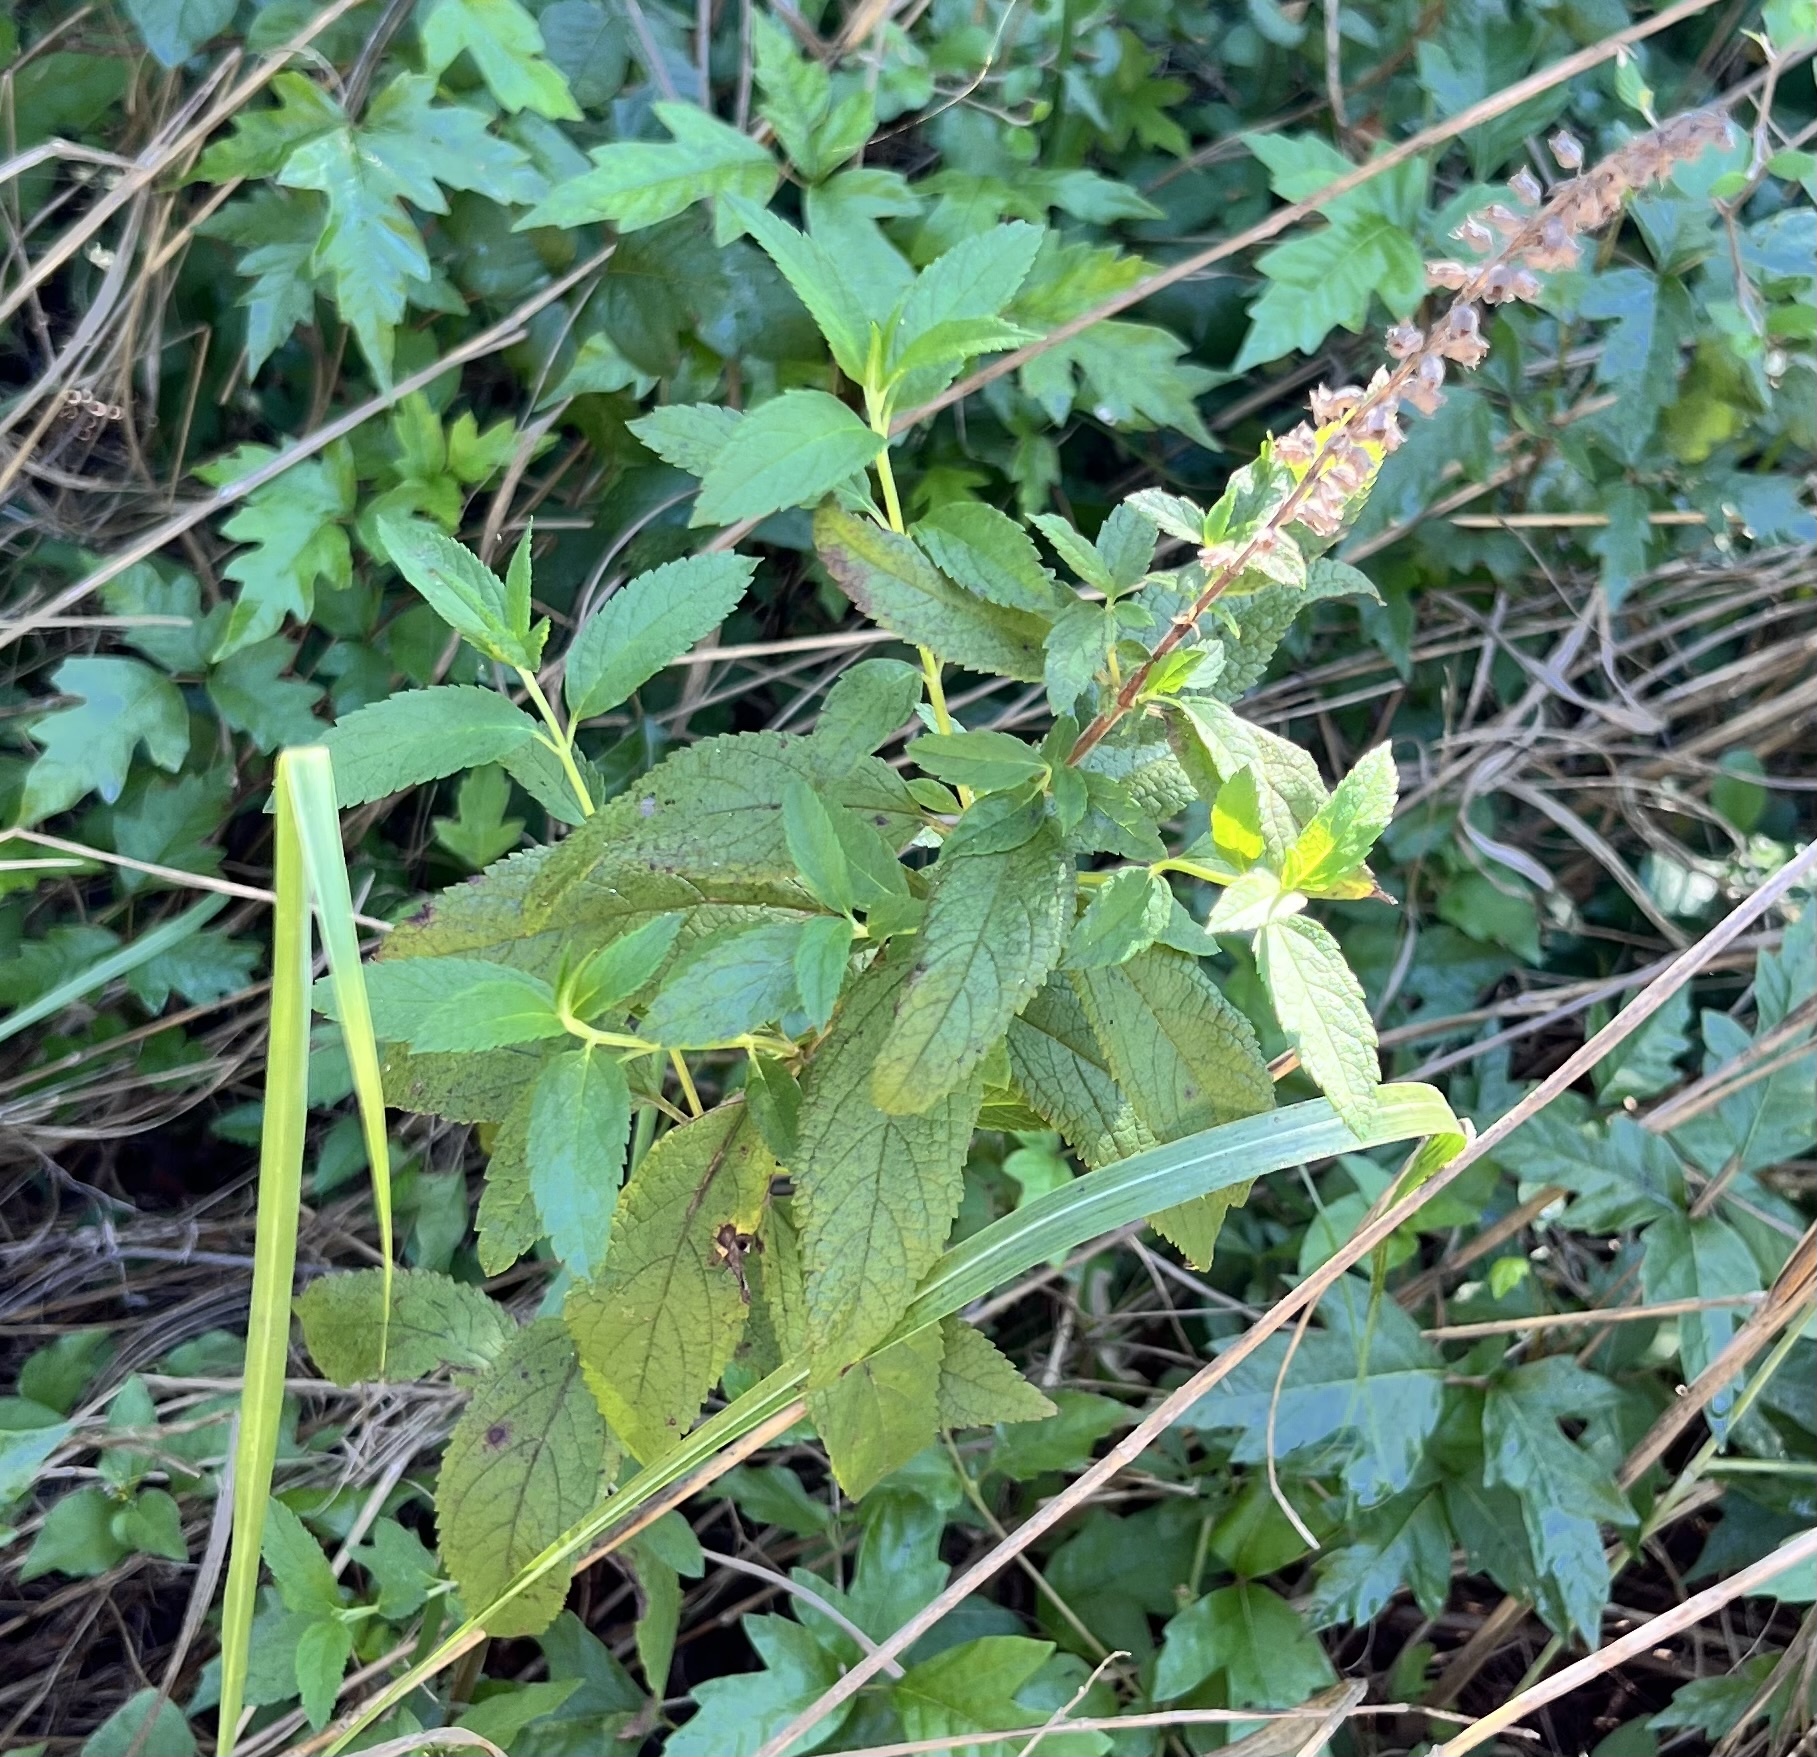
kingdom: Plantae
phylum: Tracheophyta
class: Magnoliopsida
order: Lamiales
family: Lamiaceae
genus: Teucrium
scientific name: Teucrium canadense
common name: American germander
